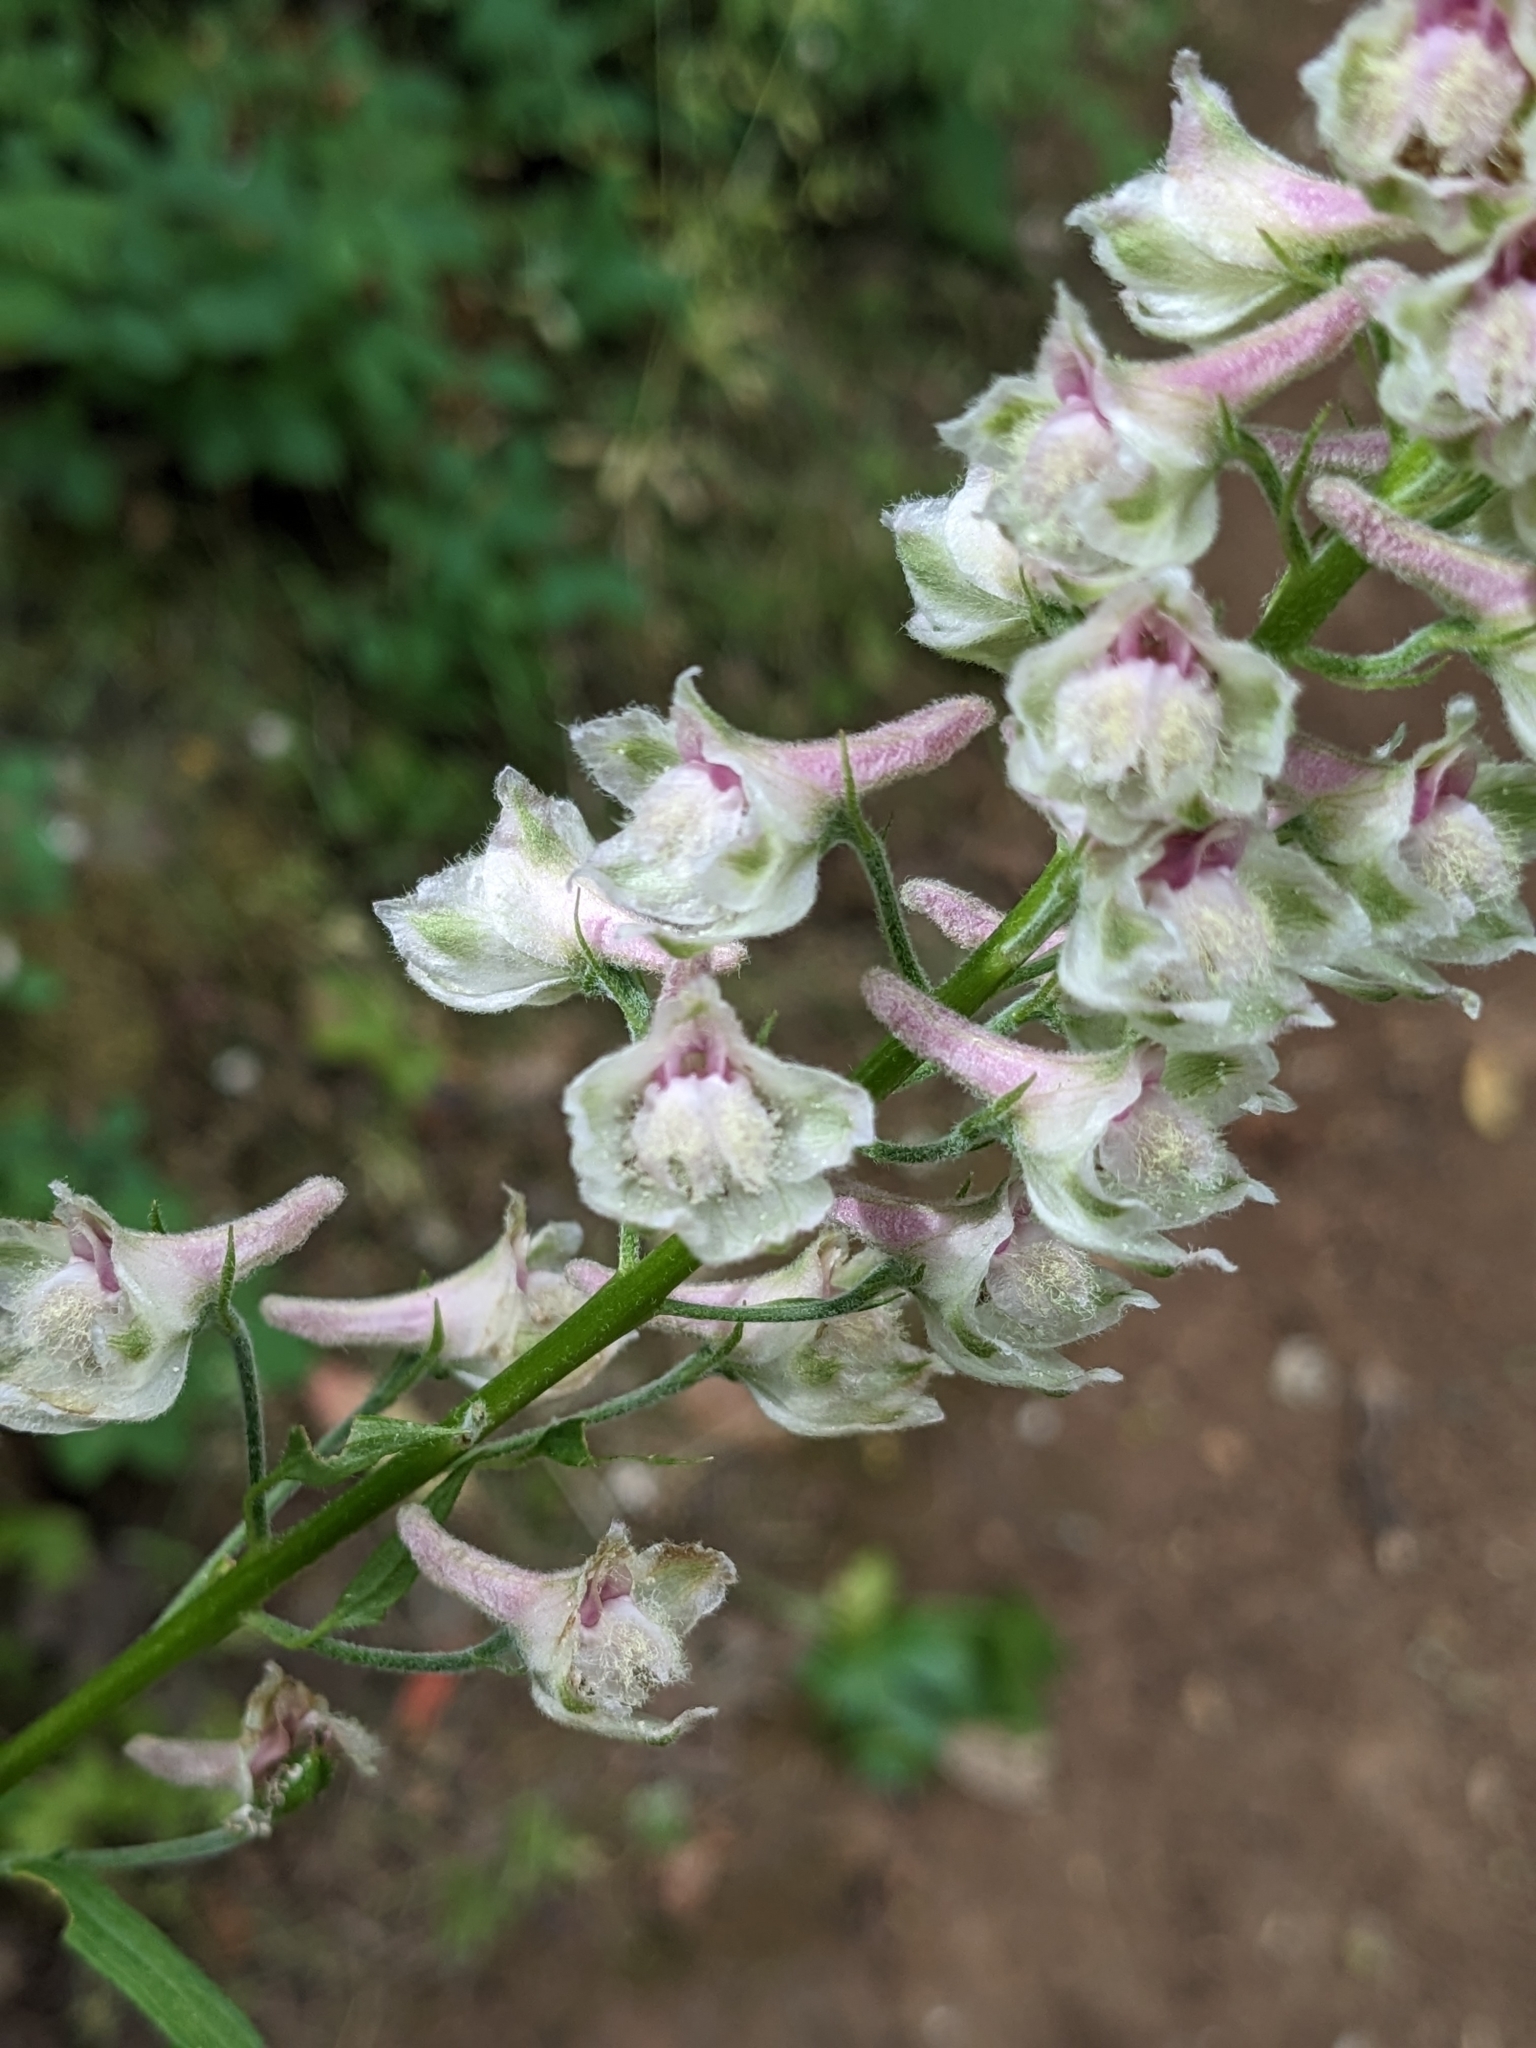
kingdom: Plantae
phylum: Tracheophyta
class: Magnoliopsida
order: Ranunculales
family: Ranunculaceae
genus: Delphinium
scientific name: Delphinium californicum
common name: California larkspur
